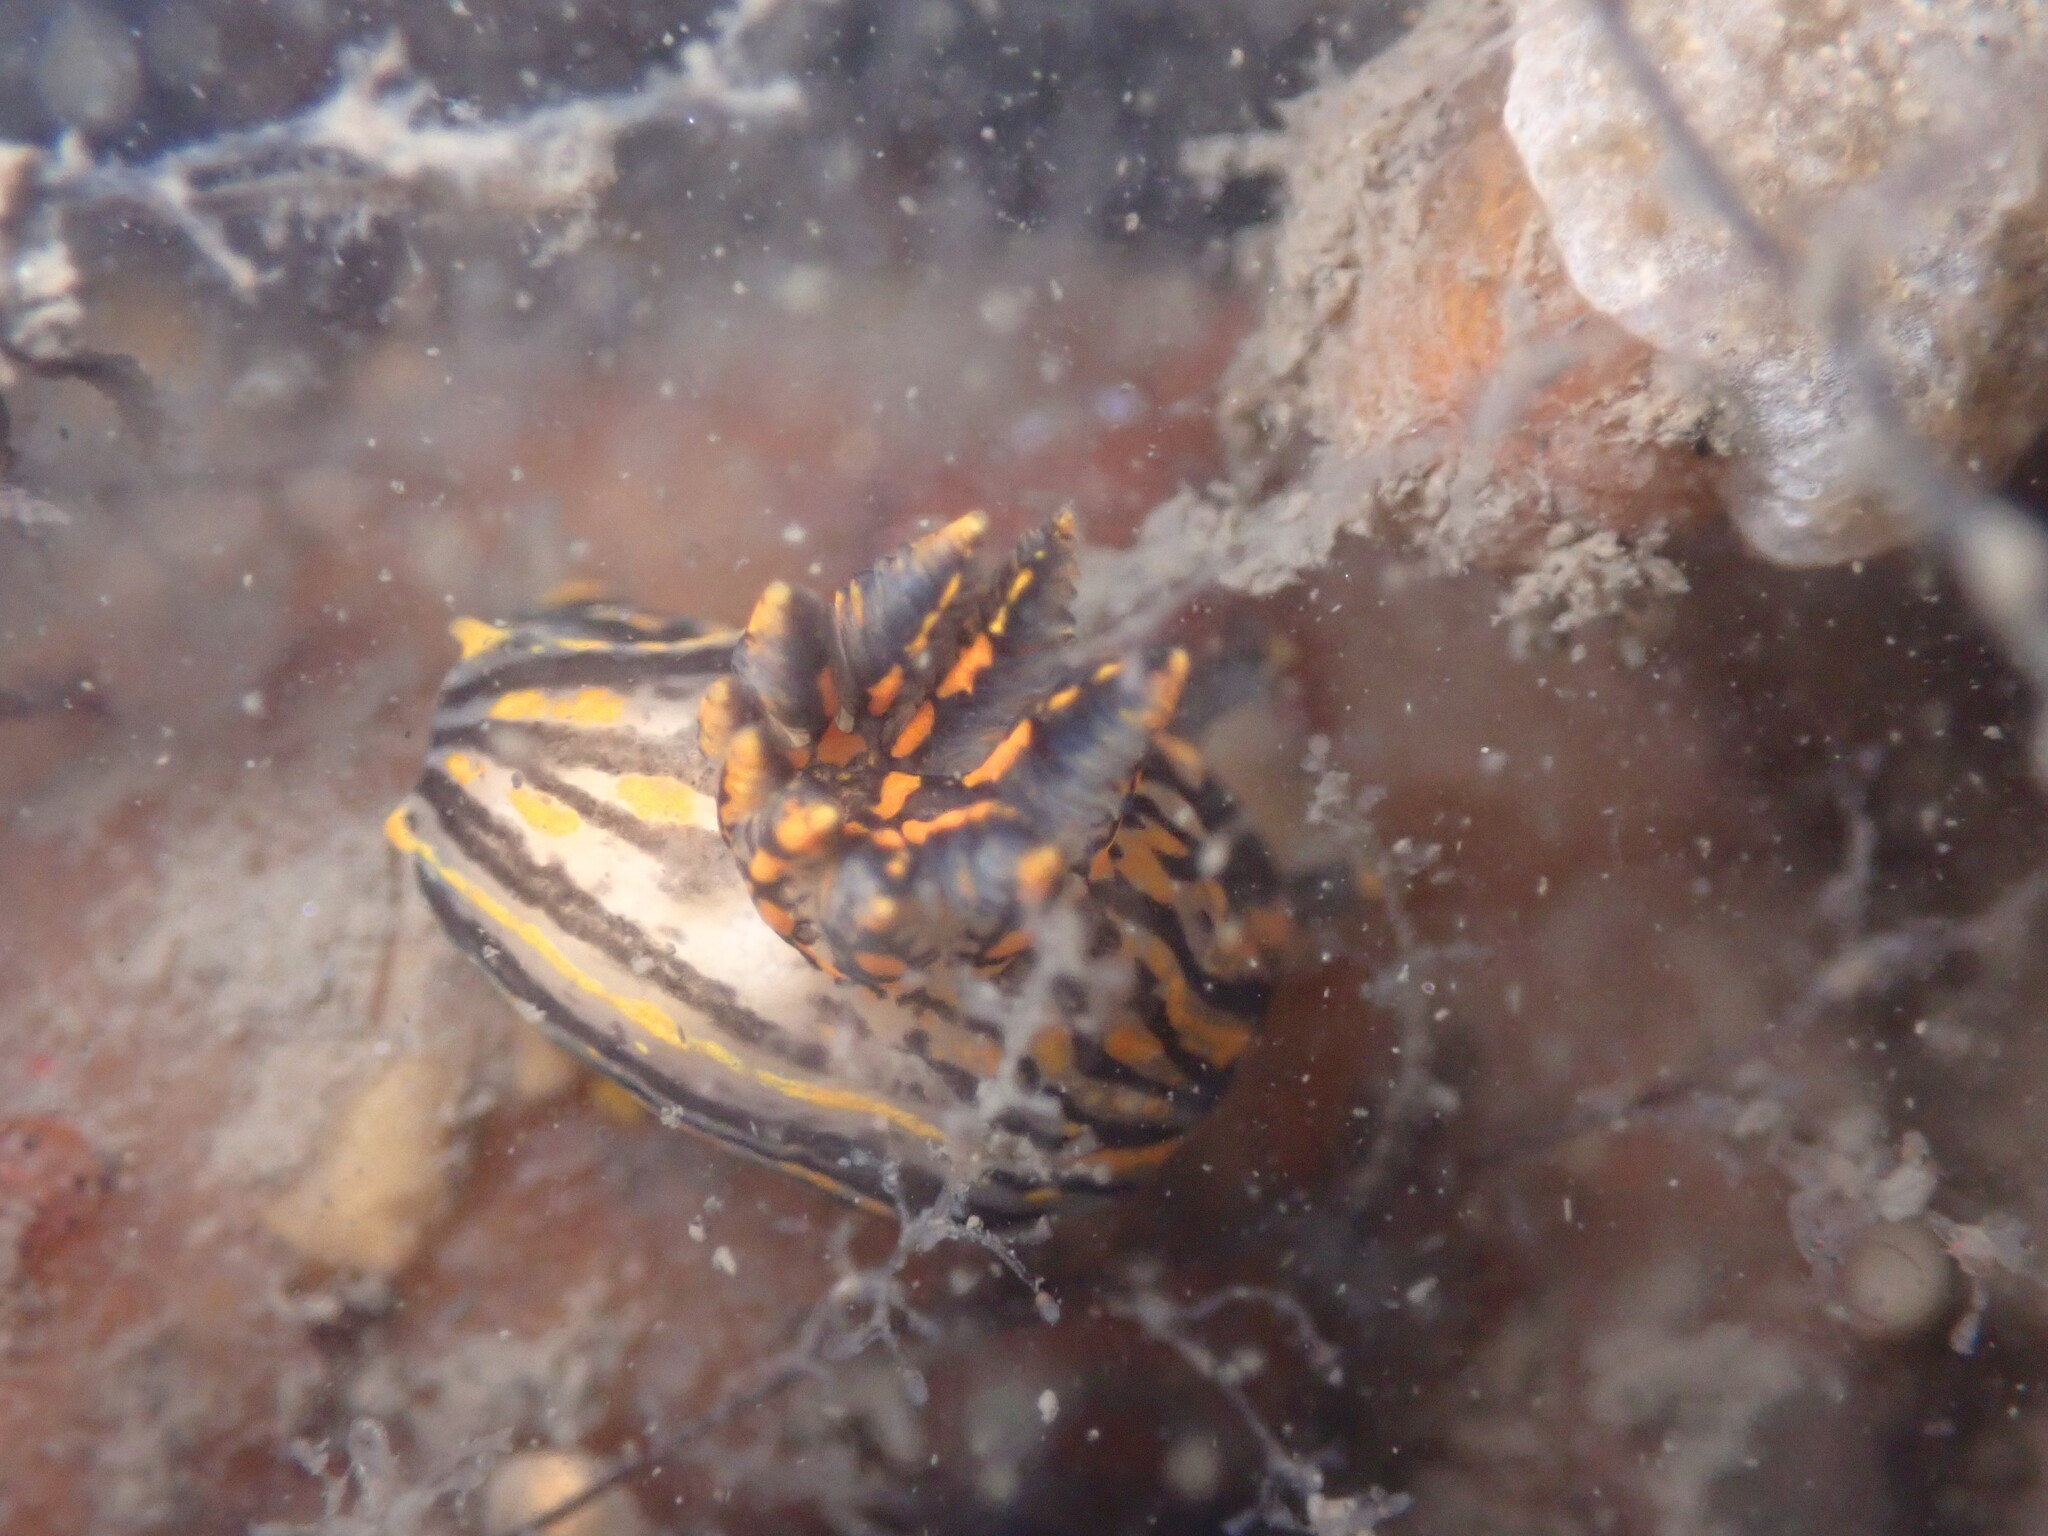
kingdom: Animalia
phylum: Mollusca
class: Gastropoda
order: Nudibranchia
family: Polyceridae
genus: Polycera
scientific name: Polycera atra
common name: Orange-spike polycera
